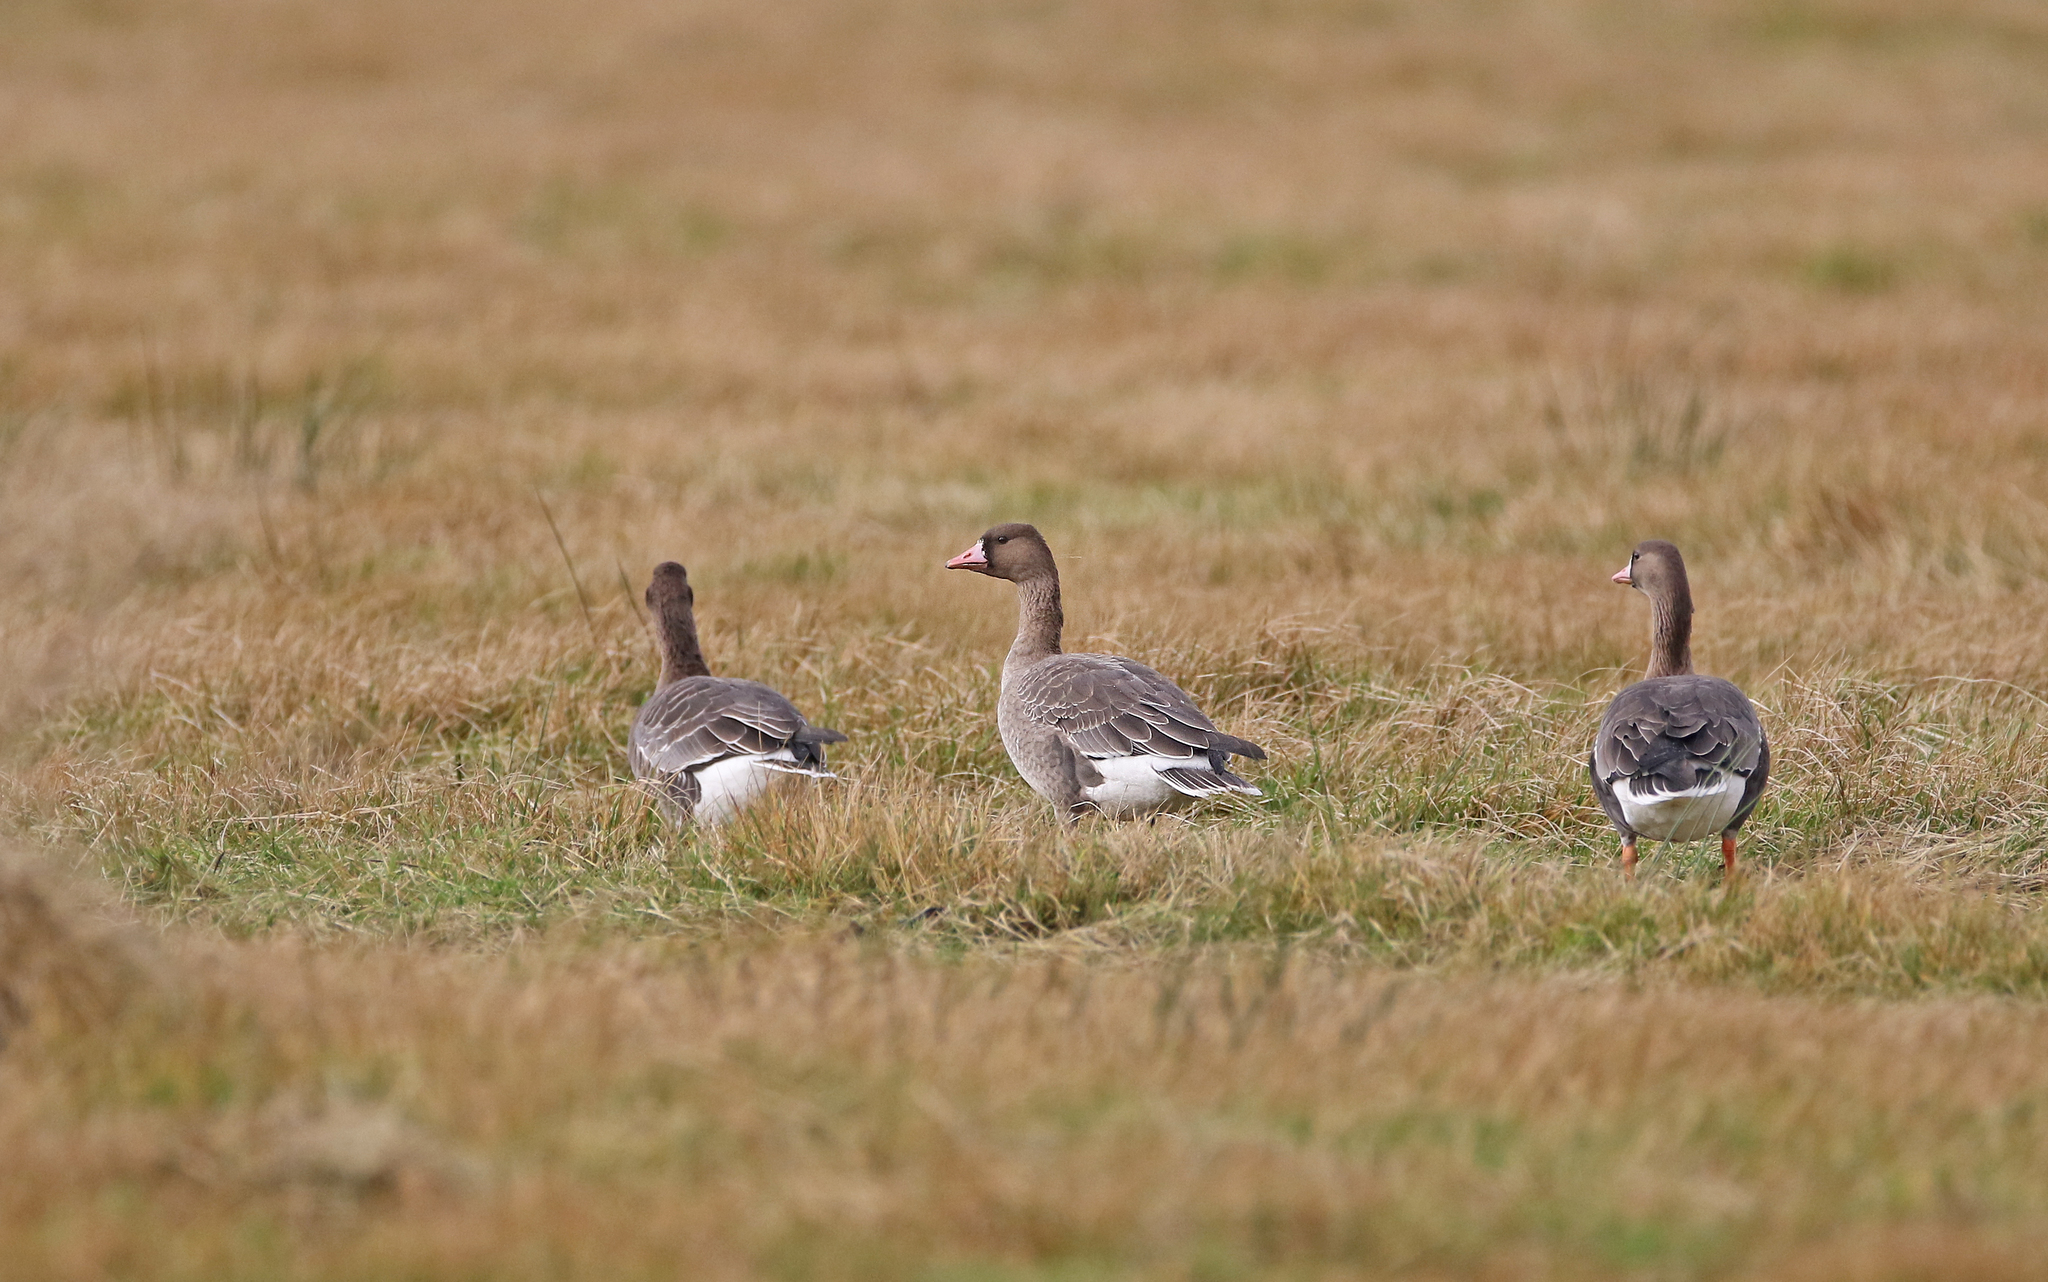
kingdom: Animalia
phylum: Chordata
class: Aves
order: Anseriformes
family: Anatidae
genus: Anser
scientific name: Anser albifrons
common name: Greater white-fronted goose
